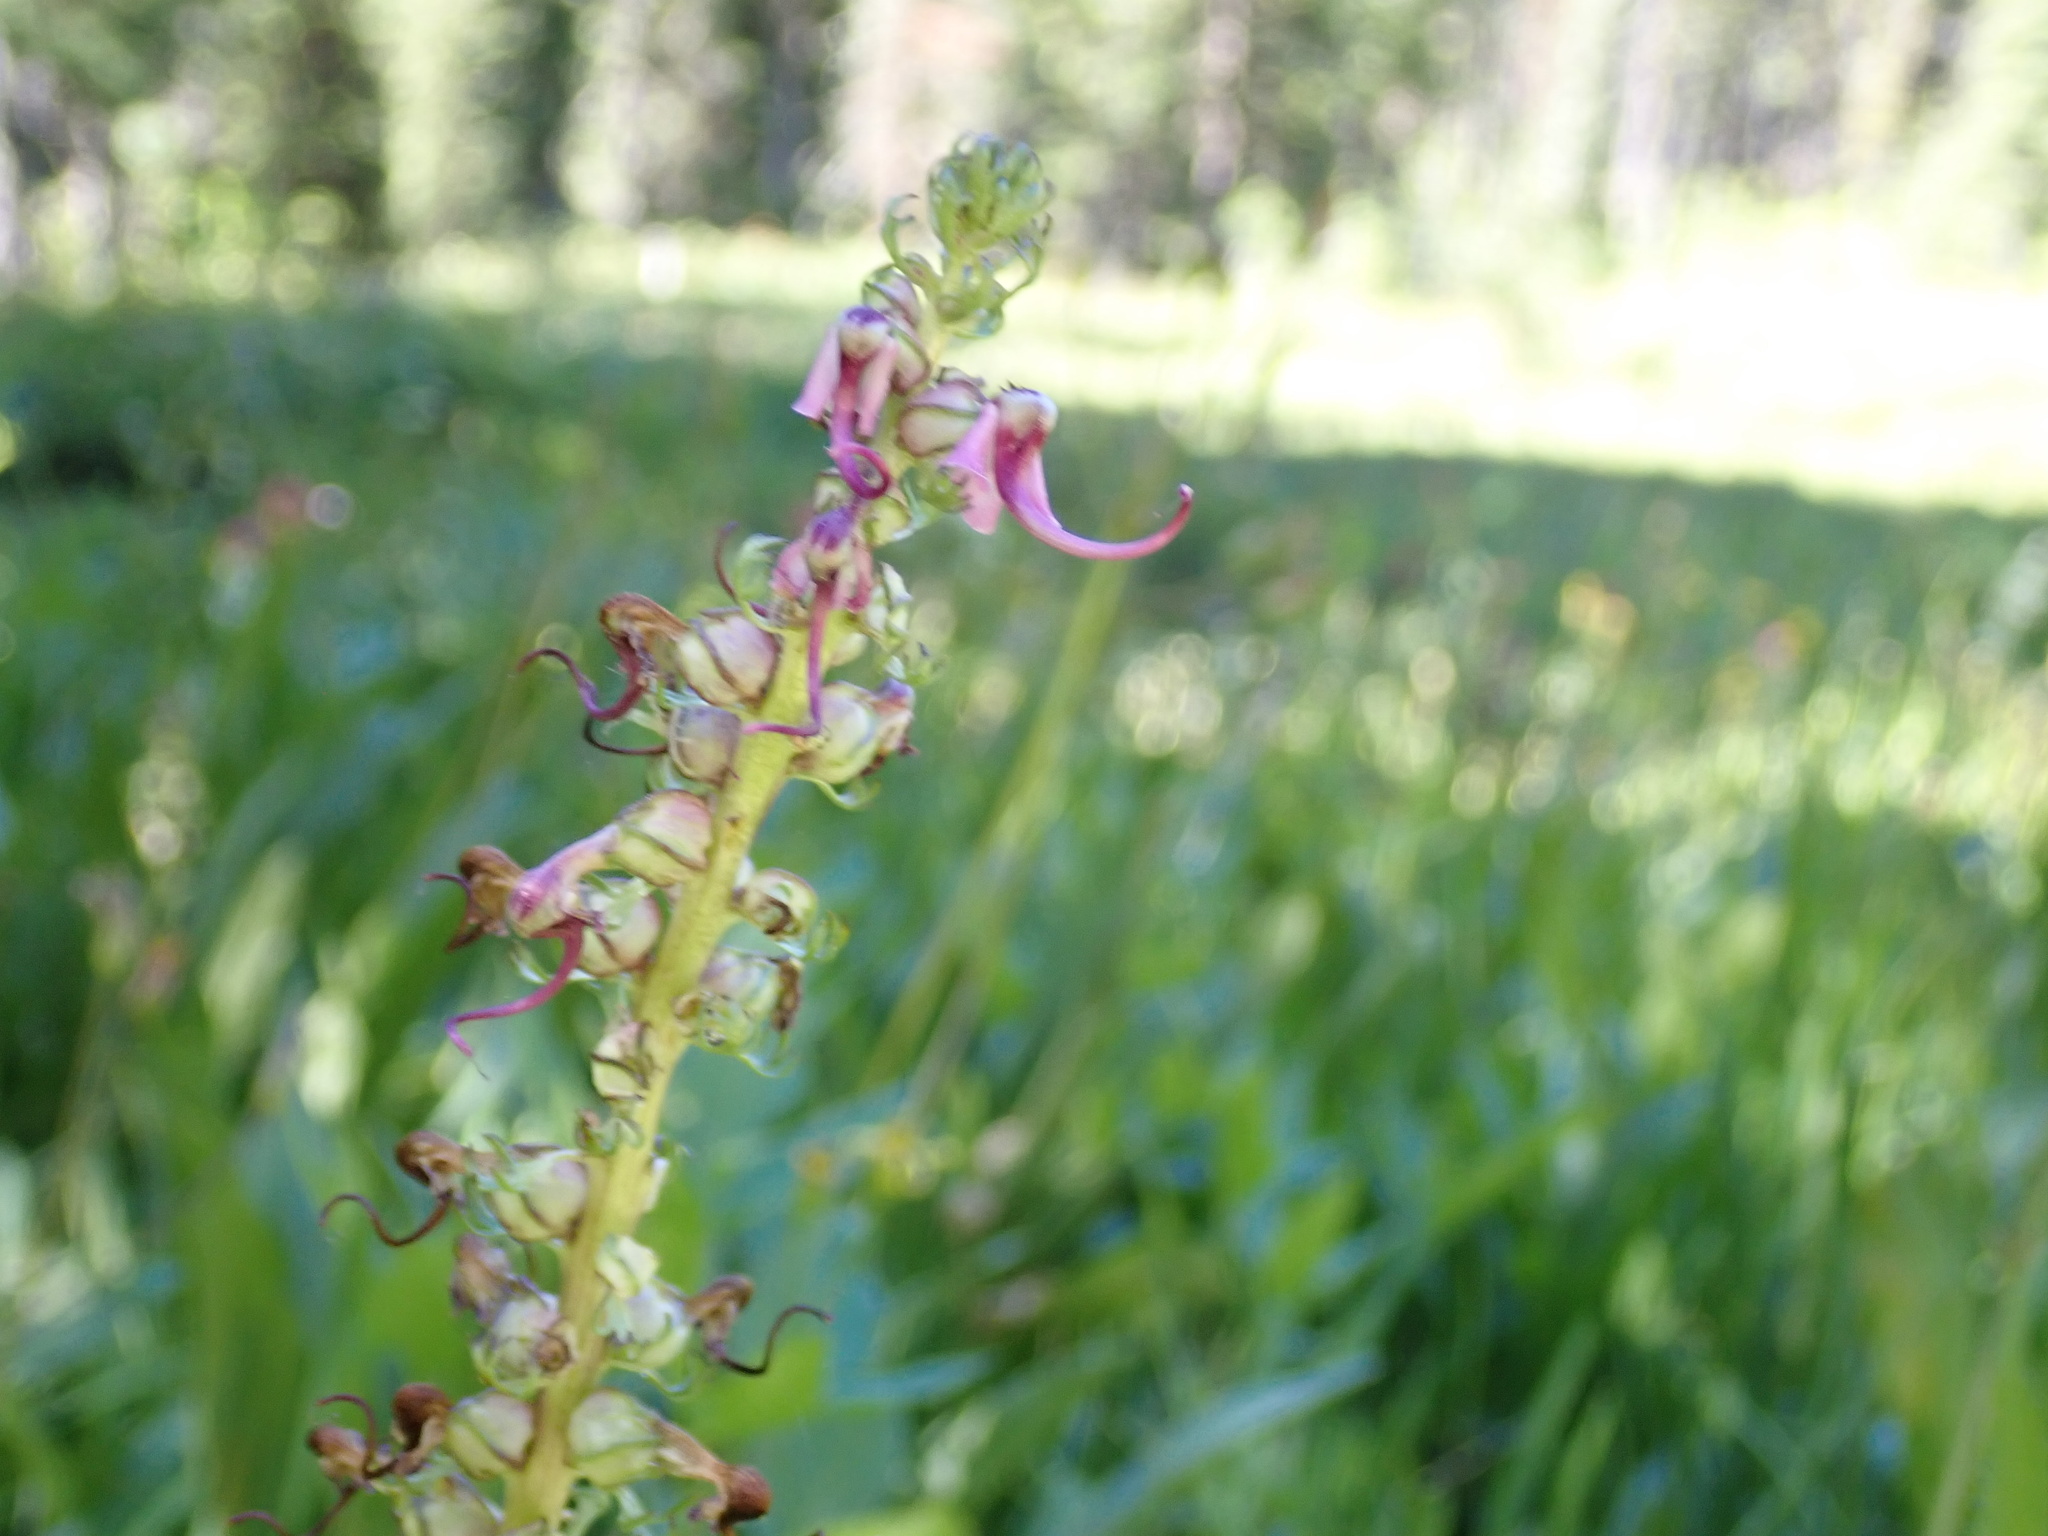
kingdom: Plantae
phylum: Tracheophyta
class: Magnoliopsida
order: Lamiales
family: Orobanchaceae
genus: Pedicularis
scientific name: Pedicularis groenlandica
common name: Elephant's-head
